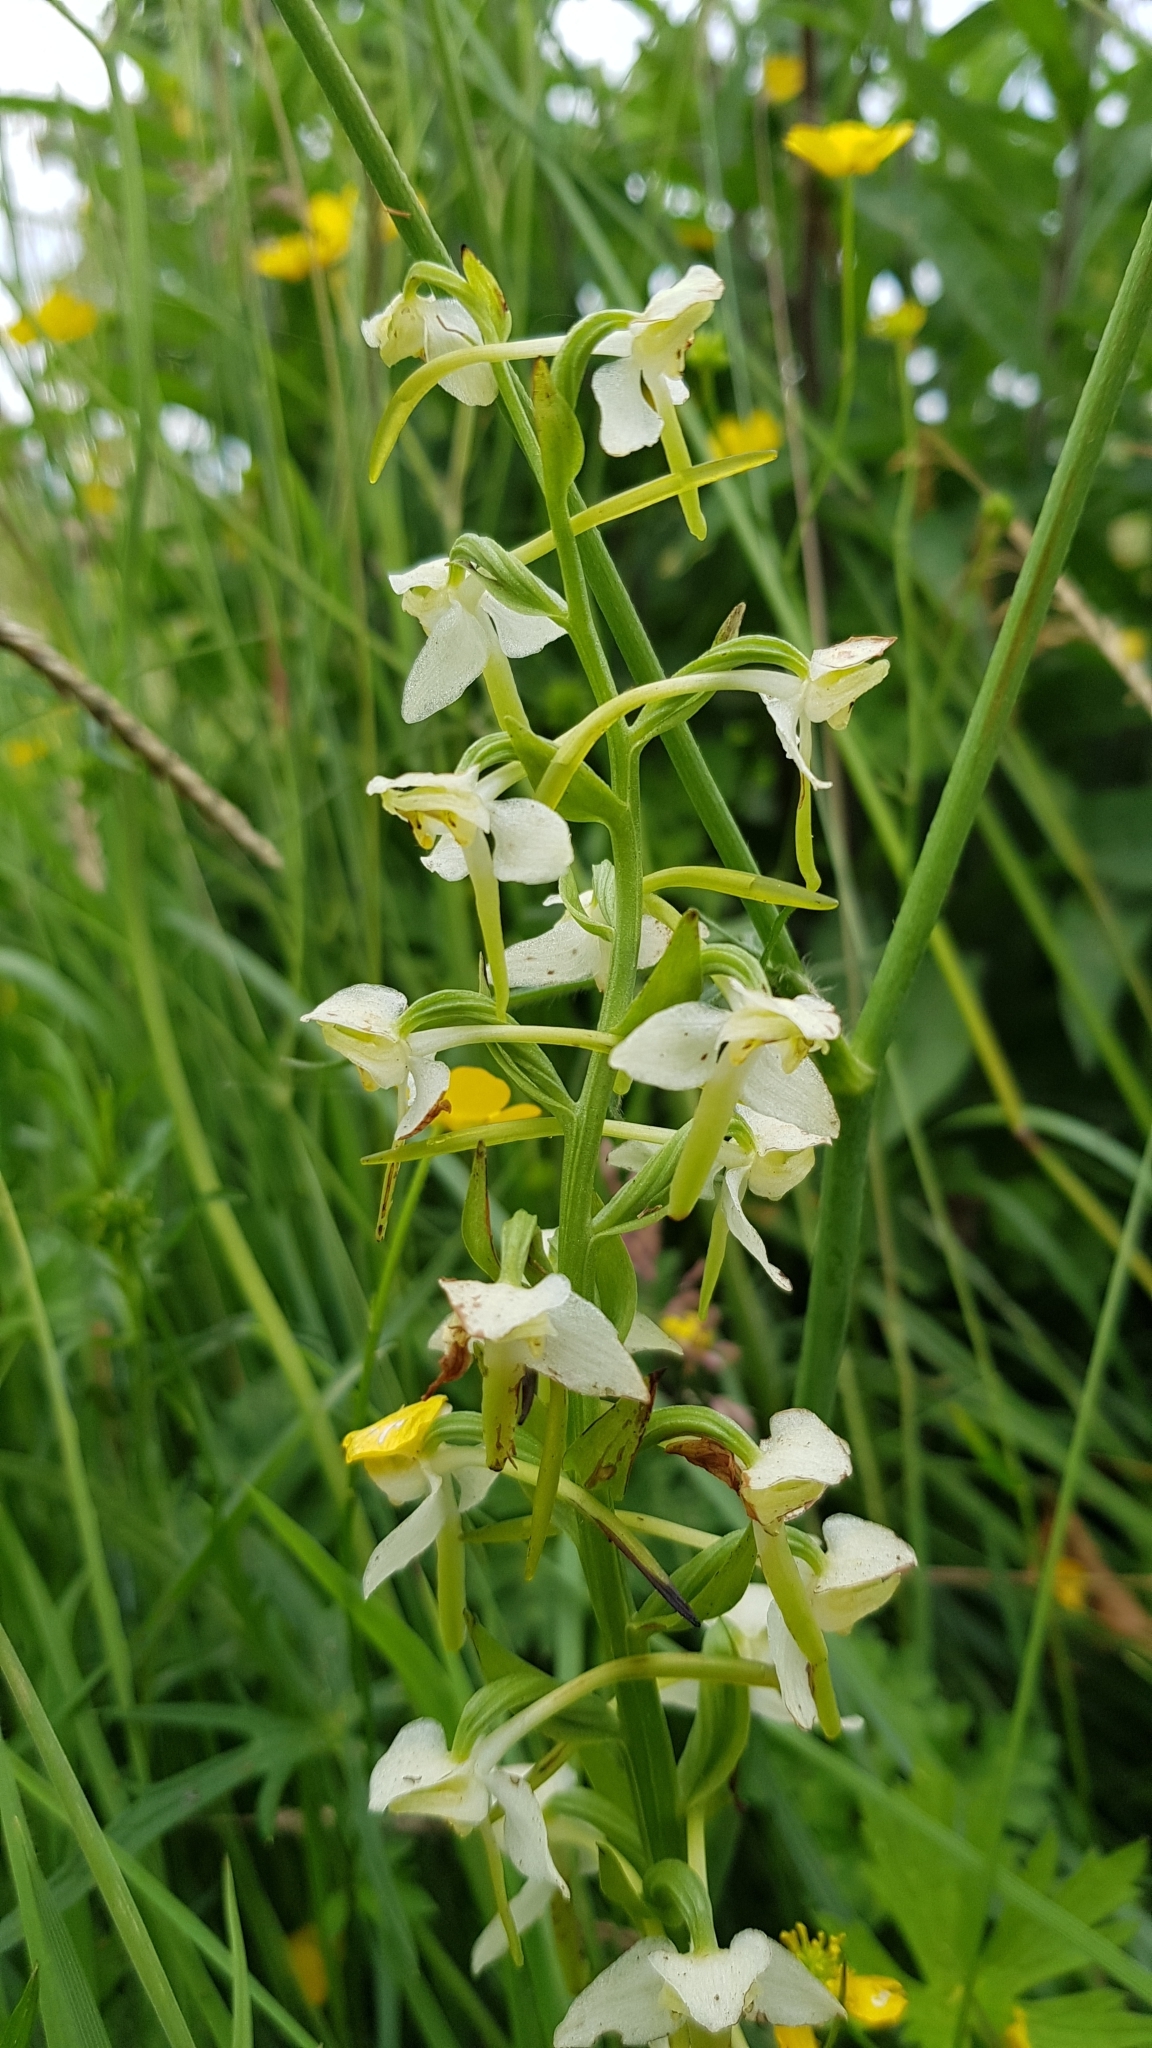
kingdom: Plantae
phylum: Tracheophyta
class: Liliopsida
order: Asparagales
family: Orchidaceae
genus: Platanthera
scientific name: Platanthera chlorantha
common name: Greater butterfly-orchid
